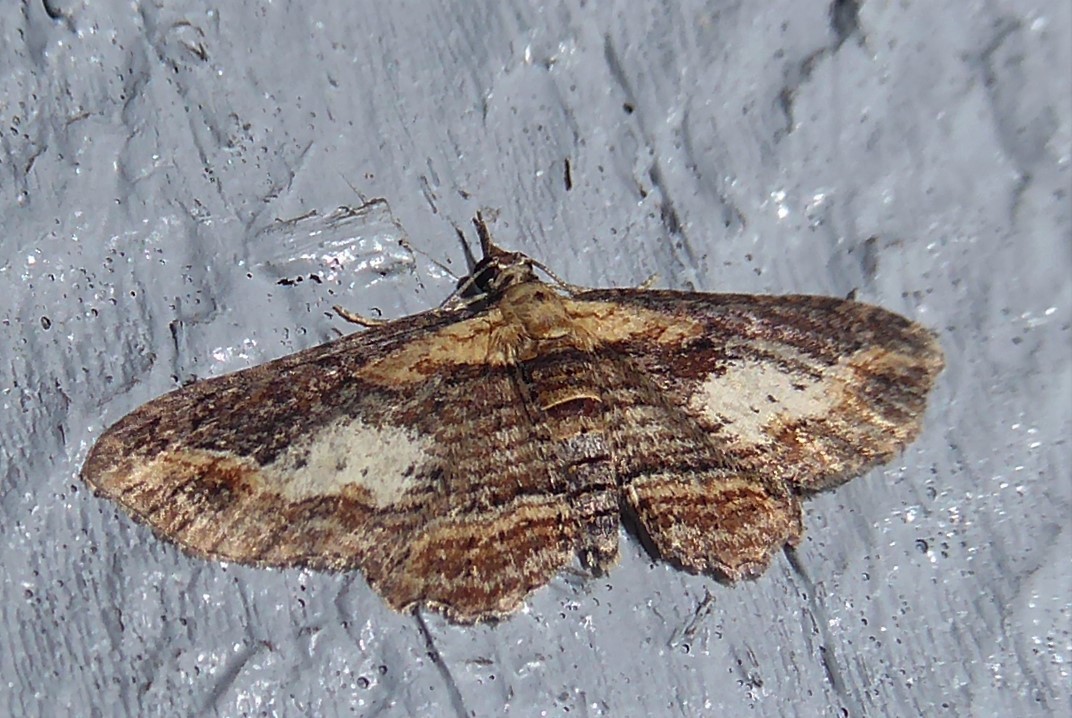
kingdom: Animalia
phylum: Arthropoda
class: Insecta
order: Lepidoptera
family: Geometridae
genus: Chloroclystis
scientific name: Chloroclystis filata
